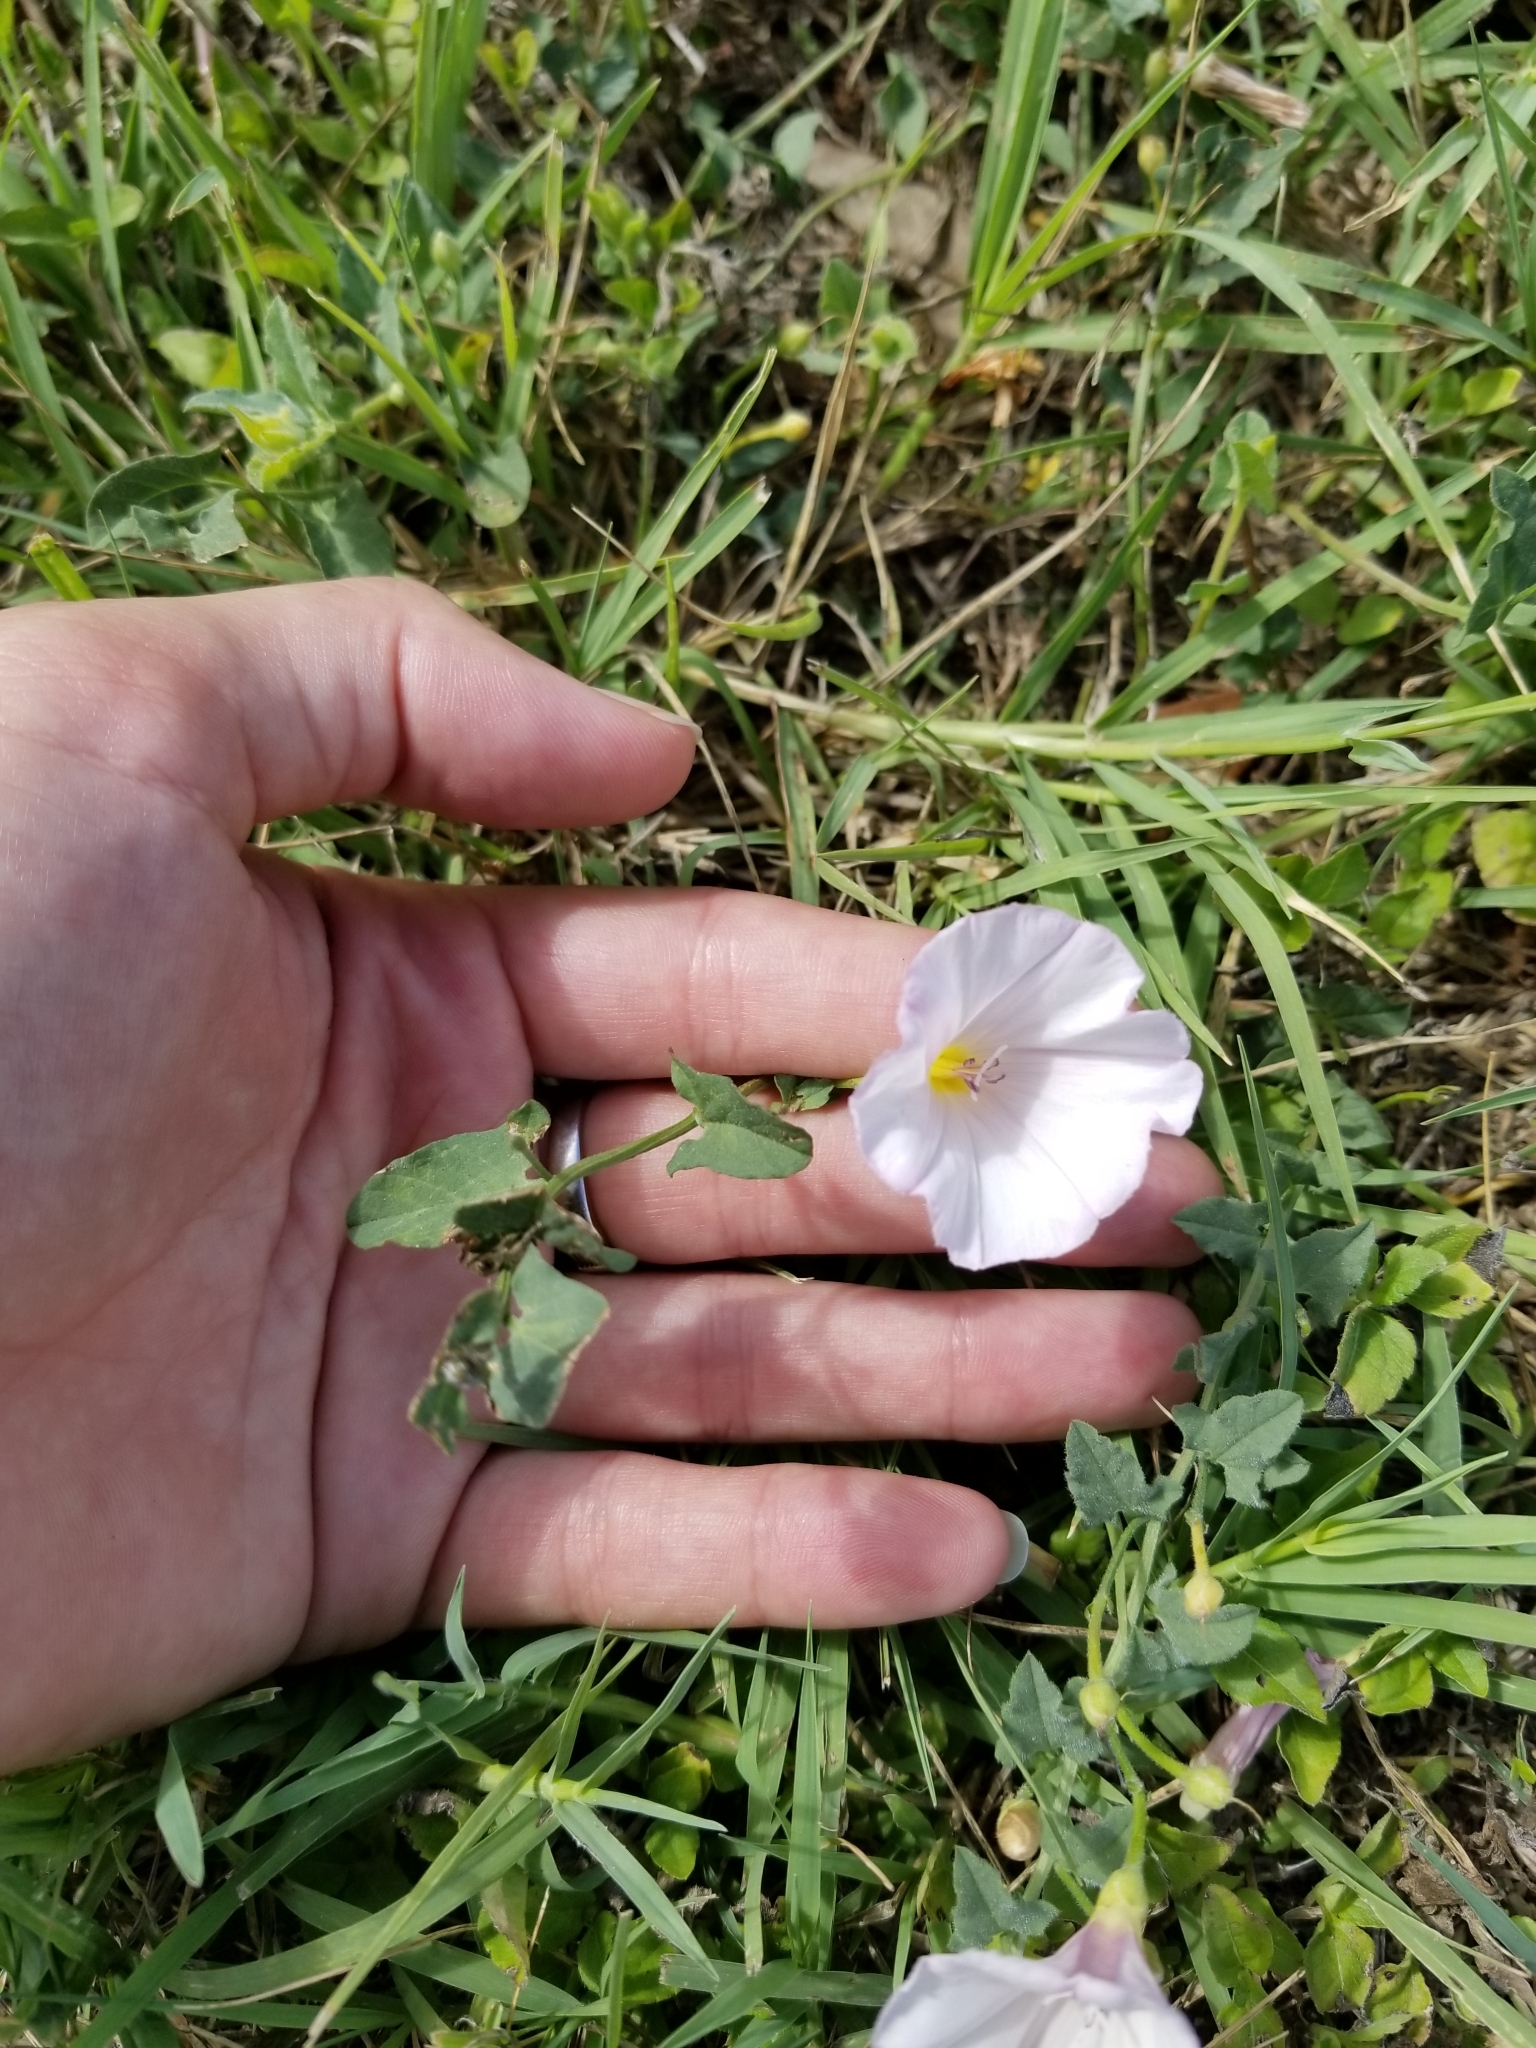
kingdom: Plantae
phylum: Tracheophyta
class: Magnoliopsida
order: Solanales
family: Convolvulaceae
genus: Convolvulus
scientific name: Convolvulus arvensis
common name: Field bindweed
